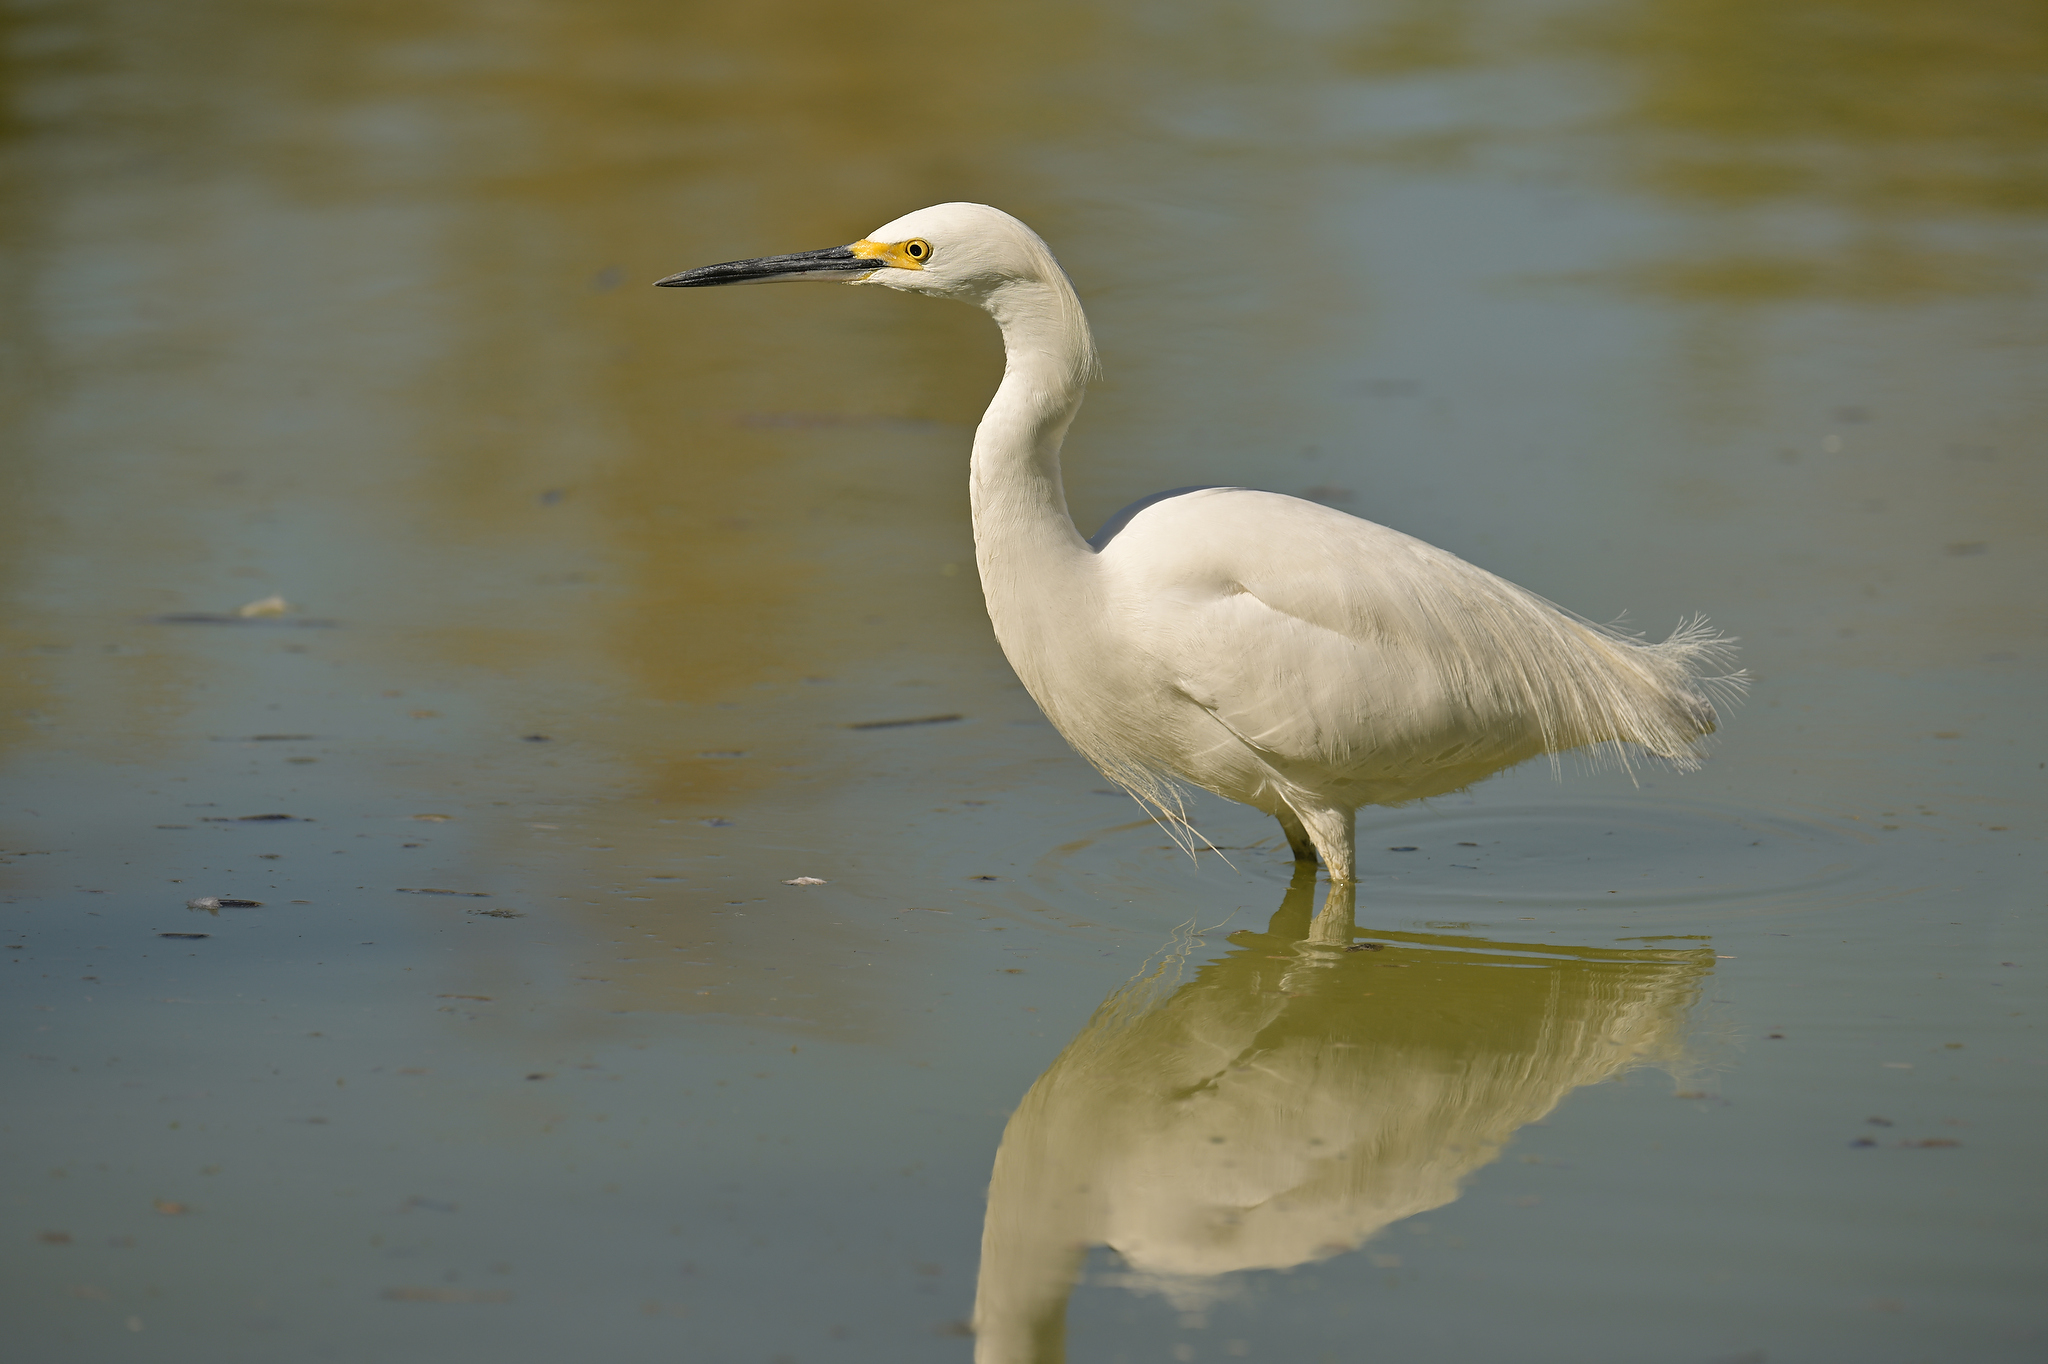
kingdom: Animalia
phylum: Chordata
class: Aves
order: Pelecaniformes
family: Ardeidae
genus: Egretta
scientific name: Egretta thula
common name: Snowy egret
